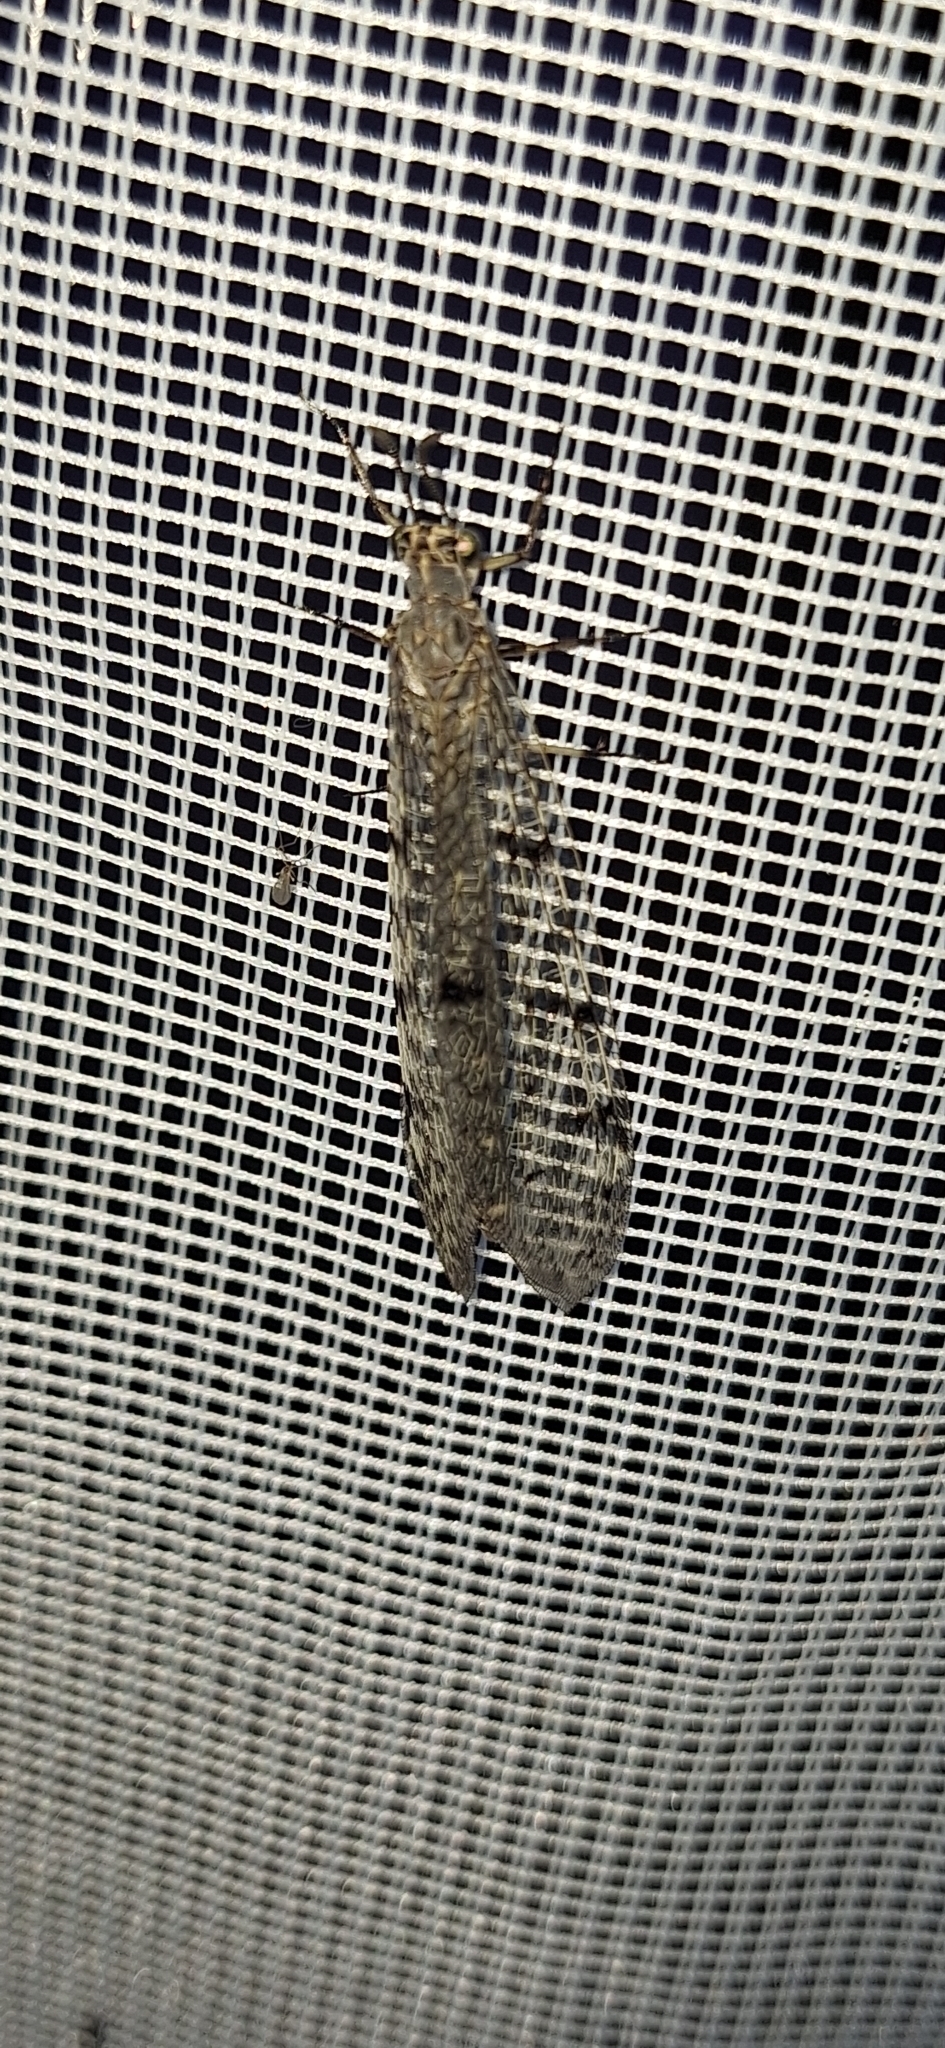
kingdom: Animalia
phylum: Arthropoda
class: Insecta
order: Neuroptera
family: Myrmeleontidae
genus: Euroleon
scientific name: Euroleon nostras
